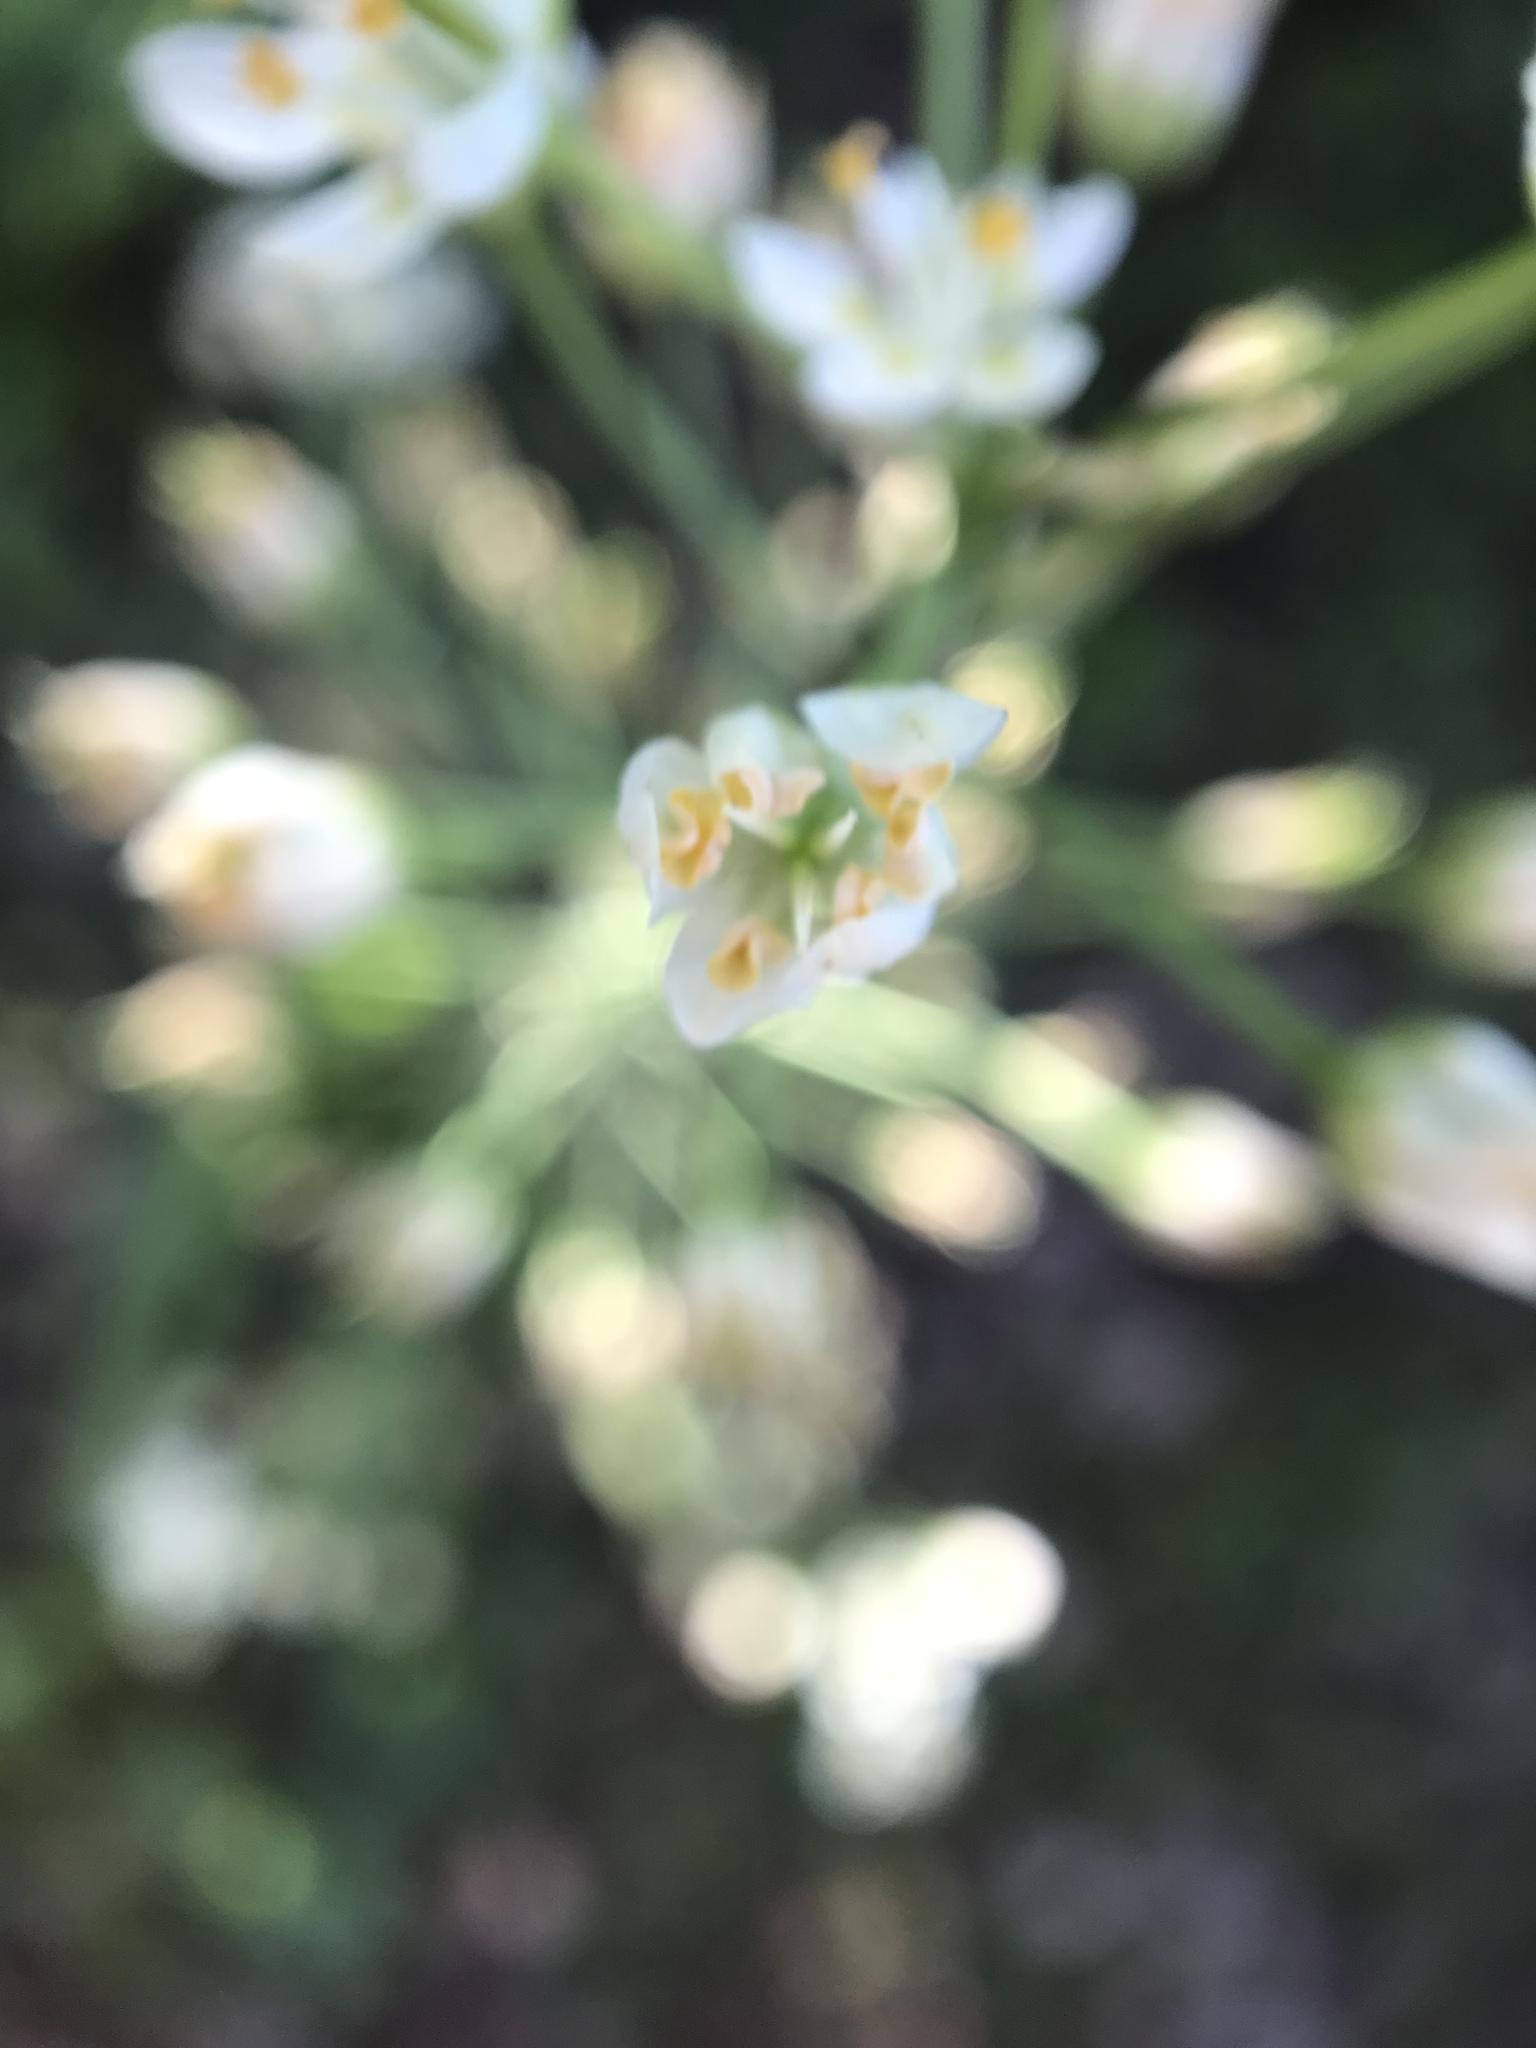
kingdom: Plantae
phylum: Tracheophyta
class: Liliopsida
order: Liliales
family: Melanthiaceae
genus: Toxicoscordion
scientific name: Toxicoscordion fremontii
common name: Fremont's death camas
